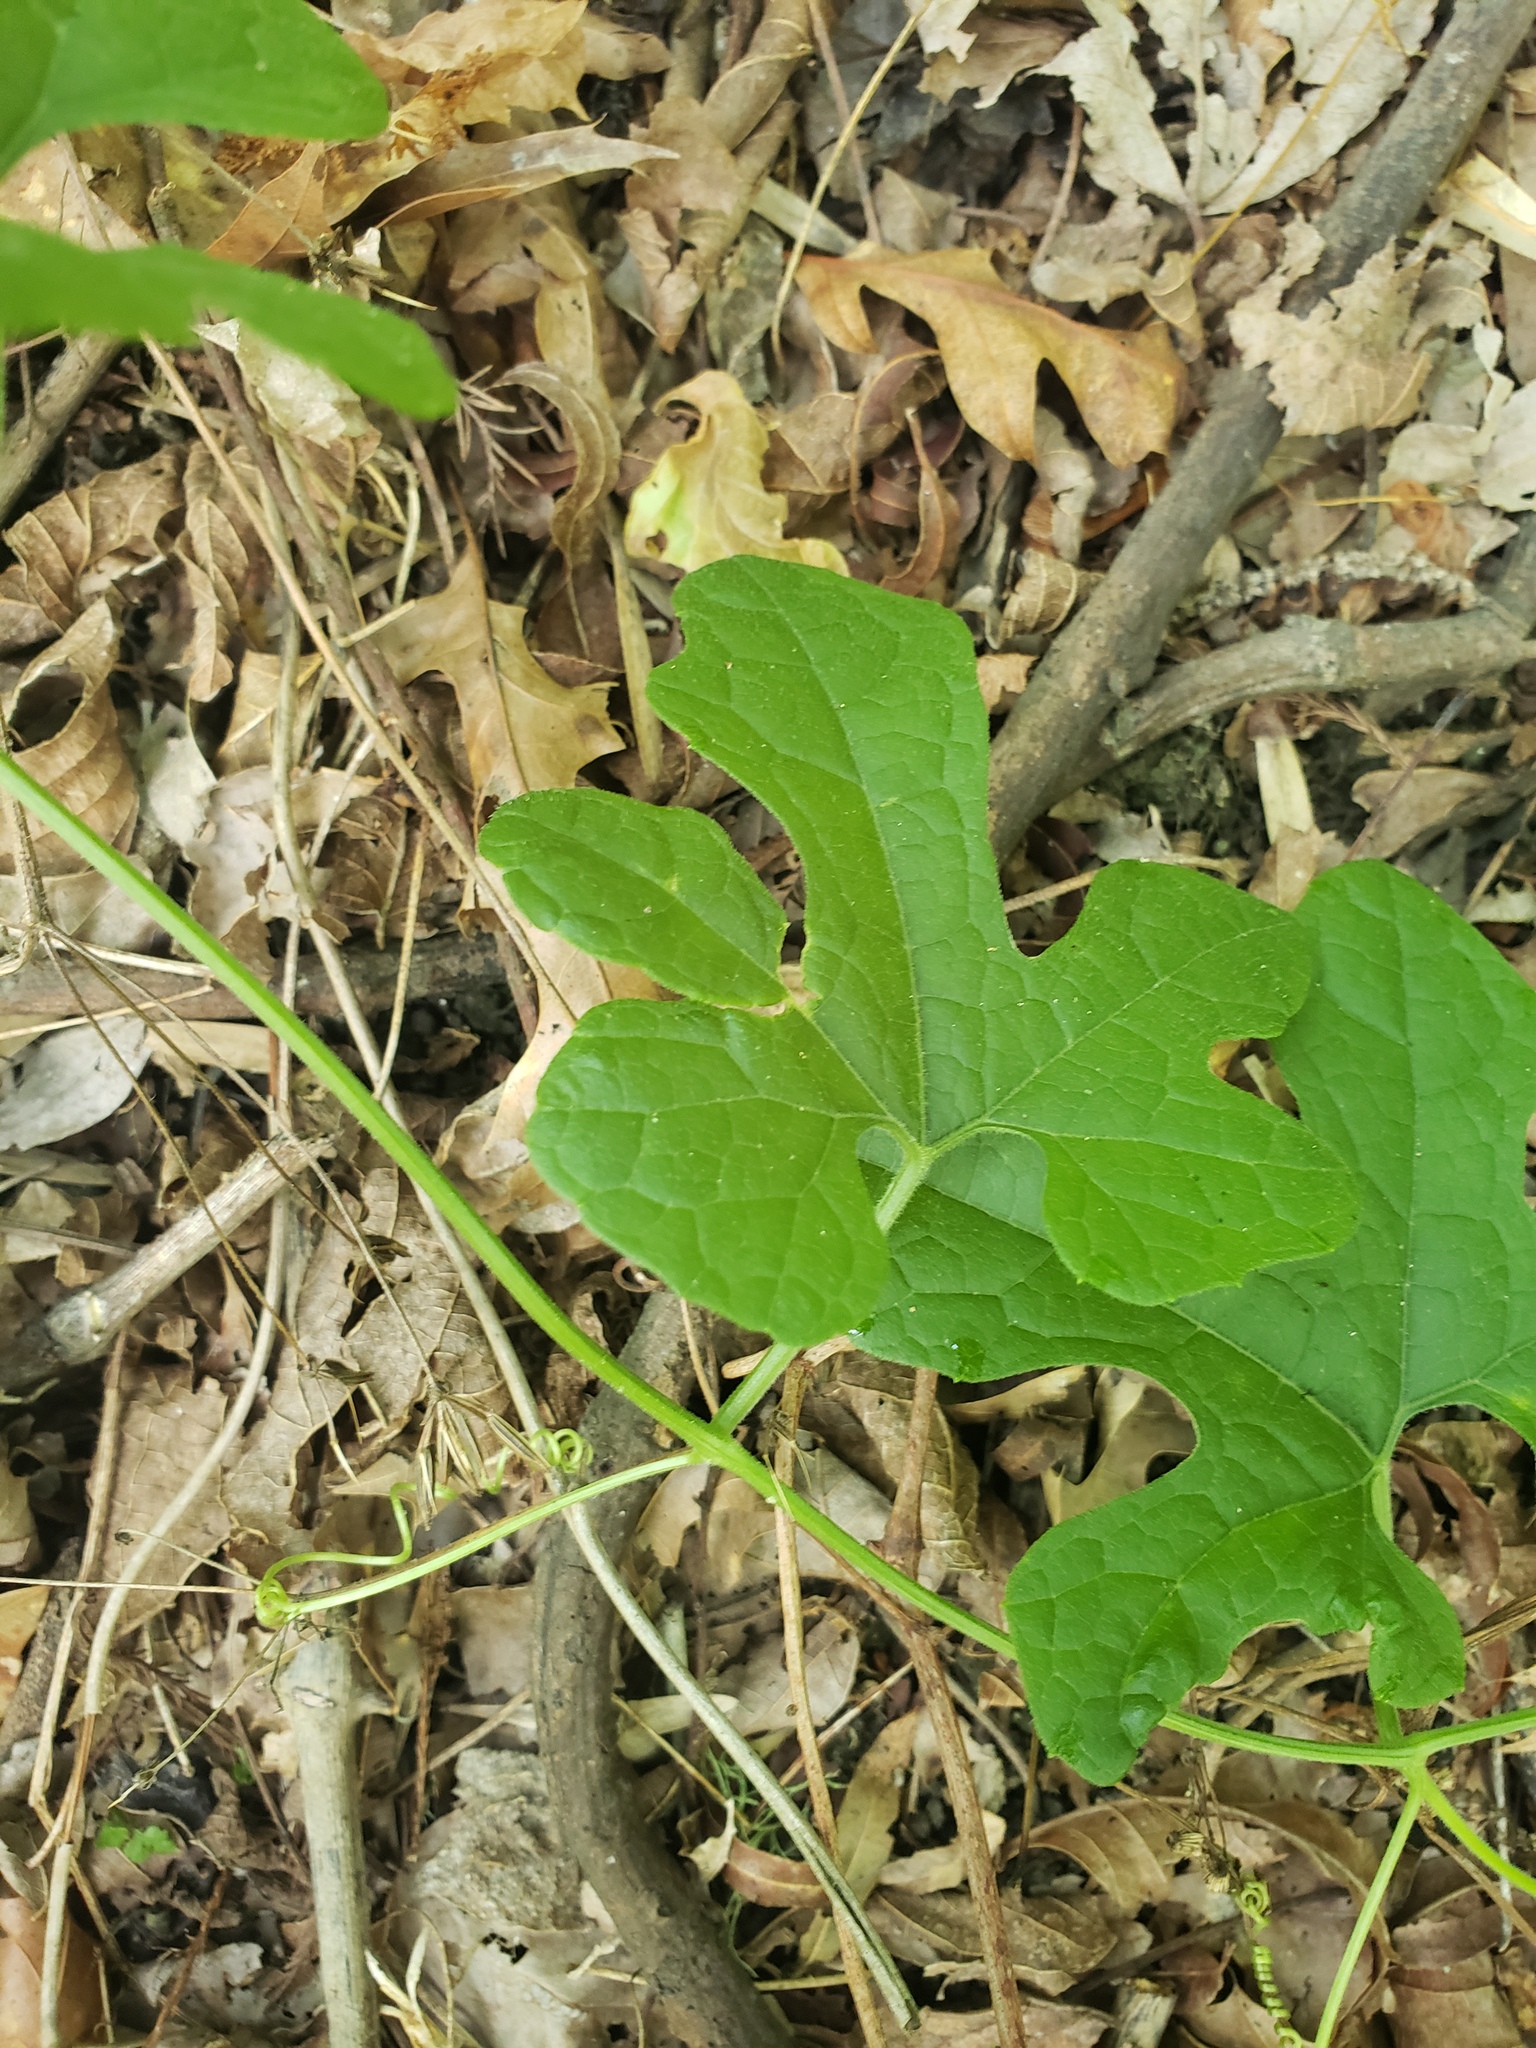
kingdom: Plantae
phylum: Tracheophyta
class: Magnoliopsida
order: Cucurbitales
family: Cucurbitaceae
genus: Cayaponia
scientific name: Cayaponia quinqueloba
